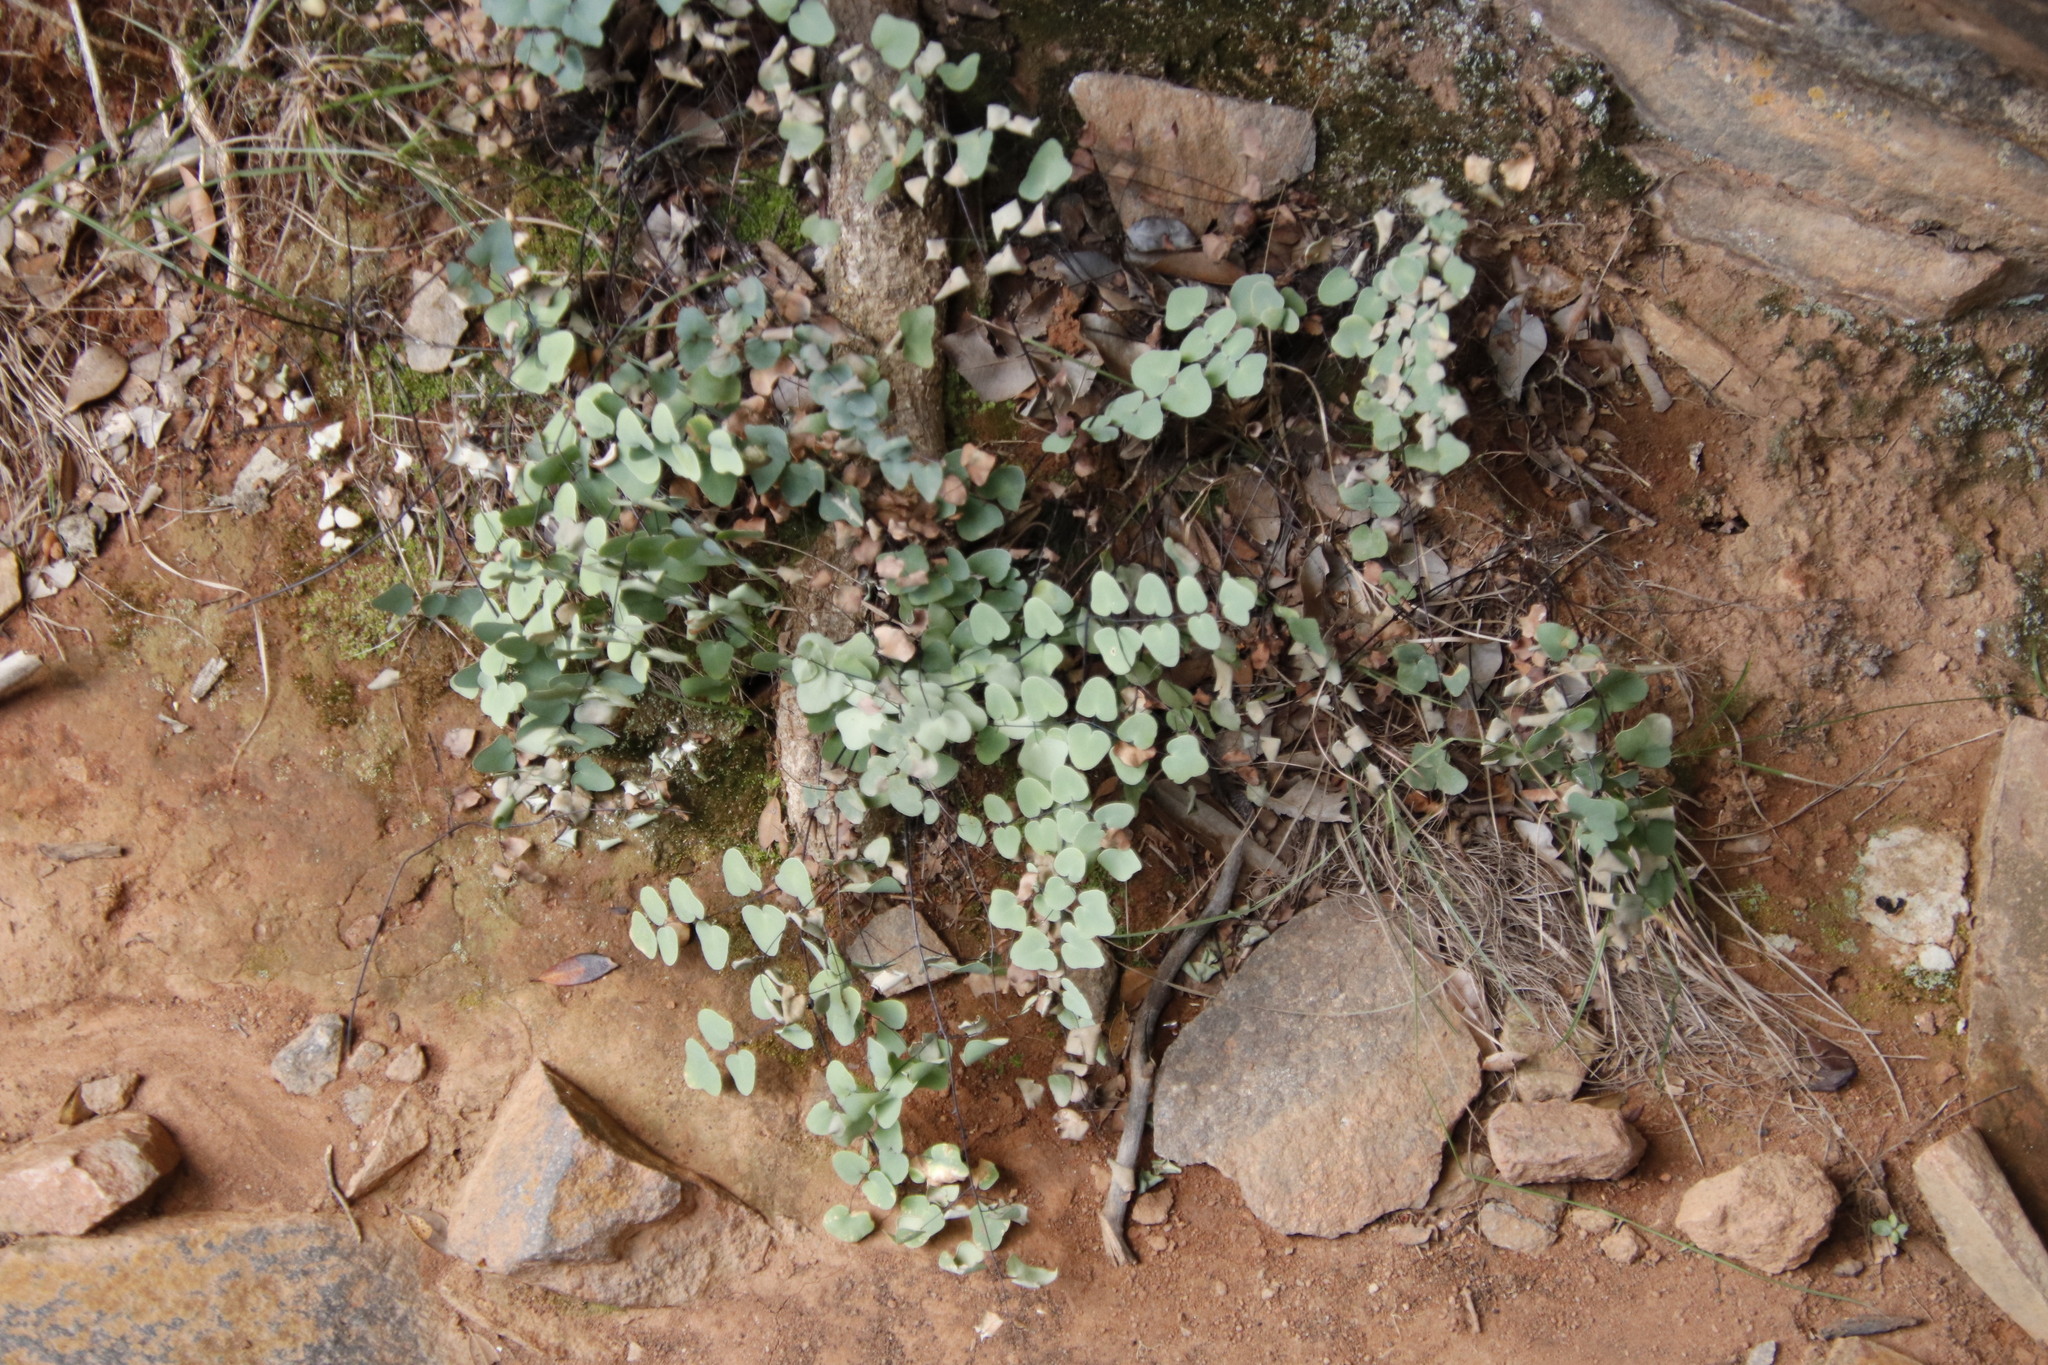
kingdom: Plantae
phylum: Tracheophyta
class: Polypodiopsida
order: Polypodiales
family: Pteridaceae
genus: Pellaea
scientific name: Pellaea calomelanos
